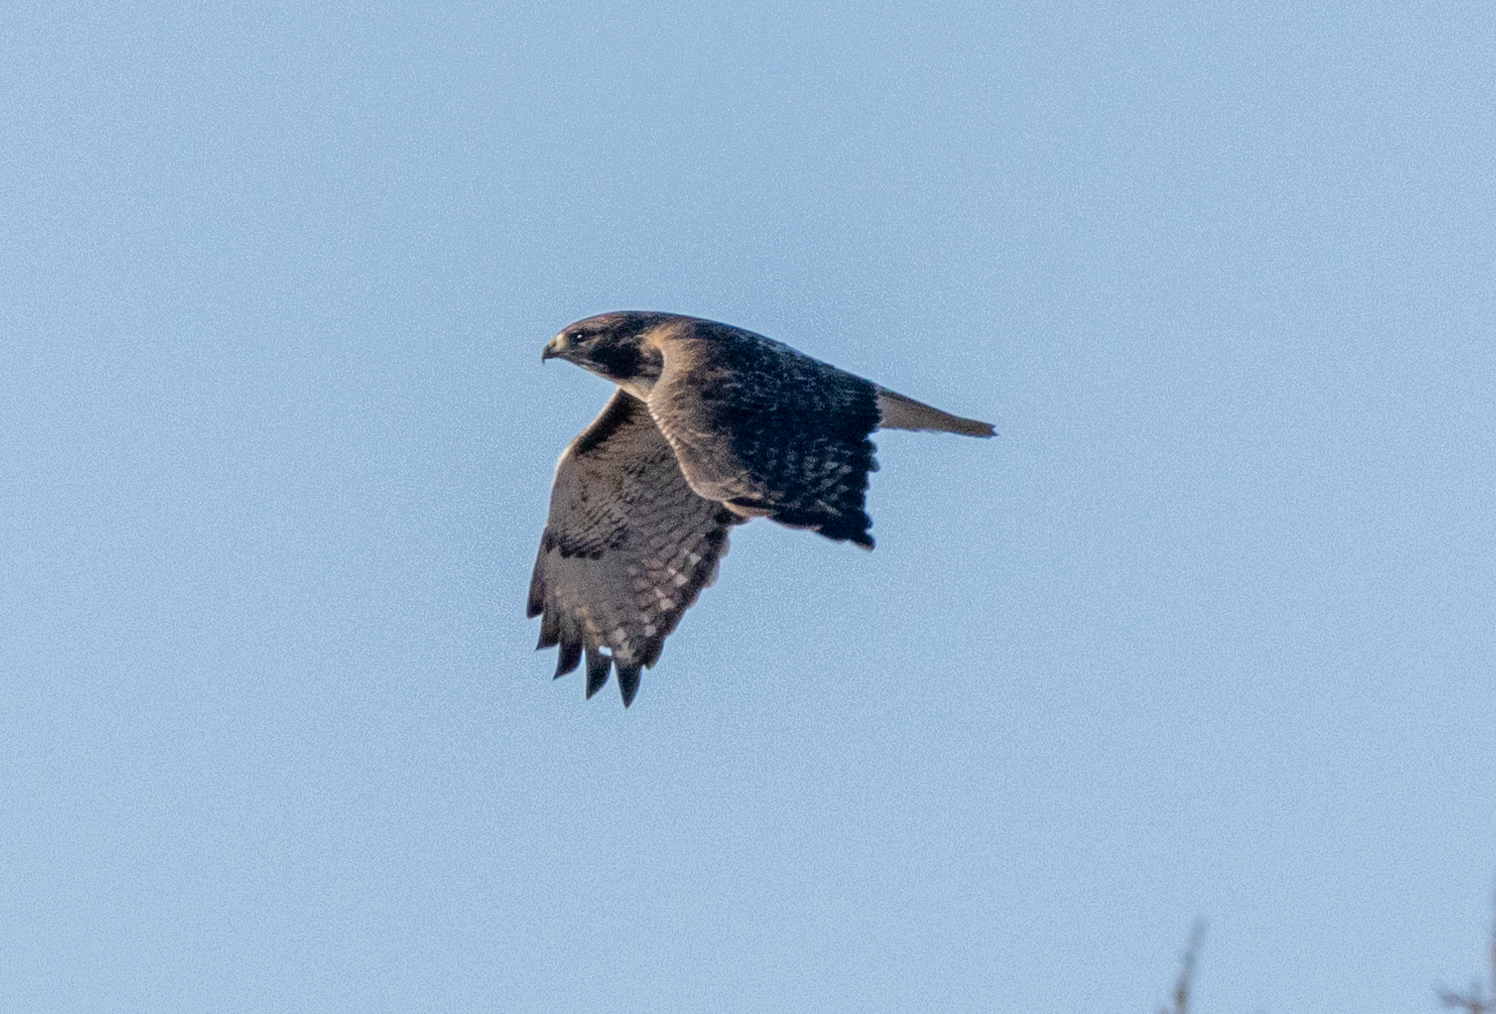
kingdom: Animalia
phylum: Chordata
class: Aves
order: Accipitriformes
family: Accipitridae
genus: Buteo
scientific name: Buteo jamaicensis
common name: Red-tailed hawk
